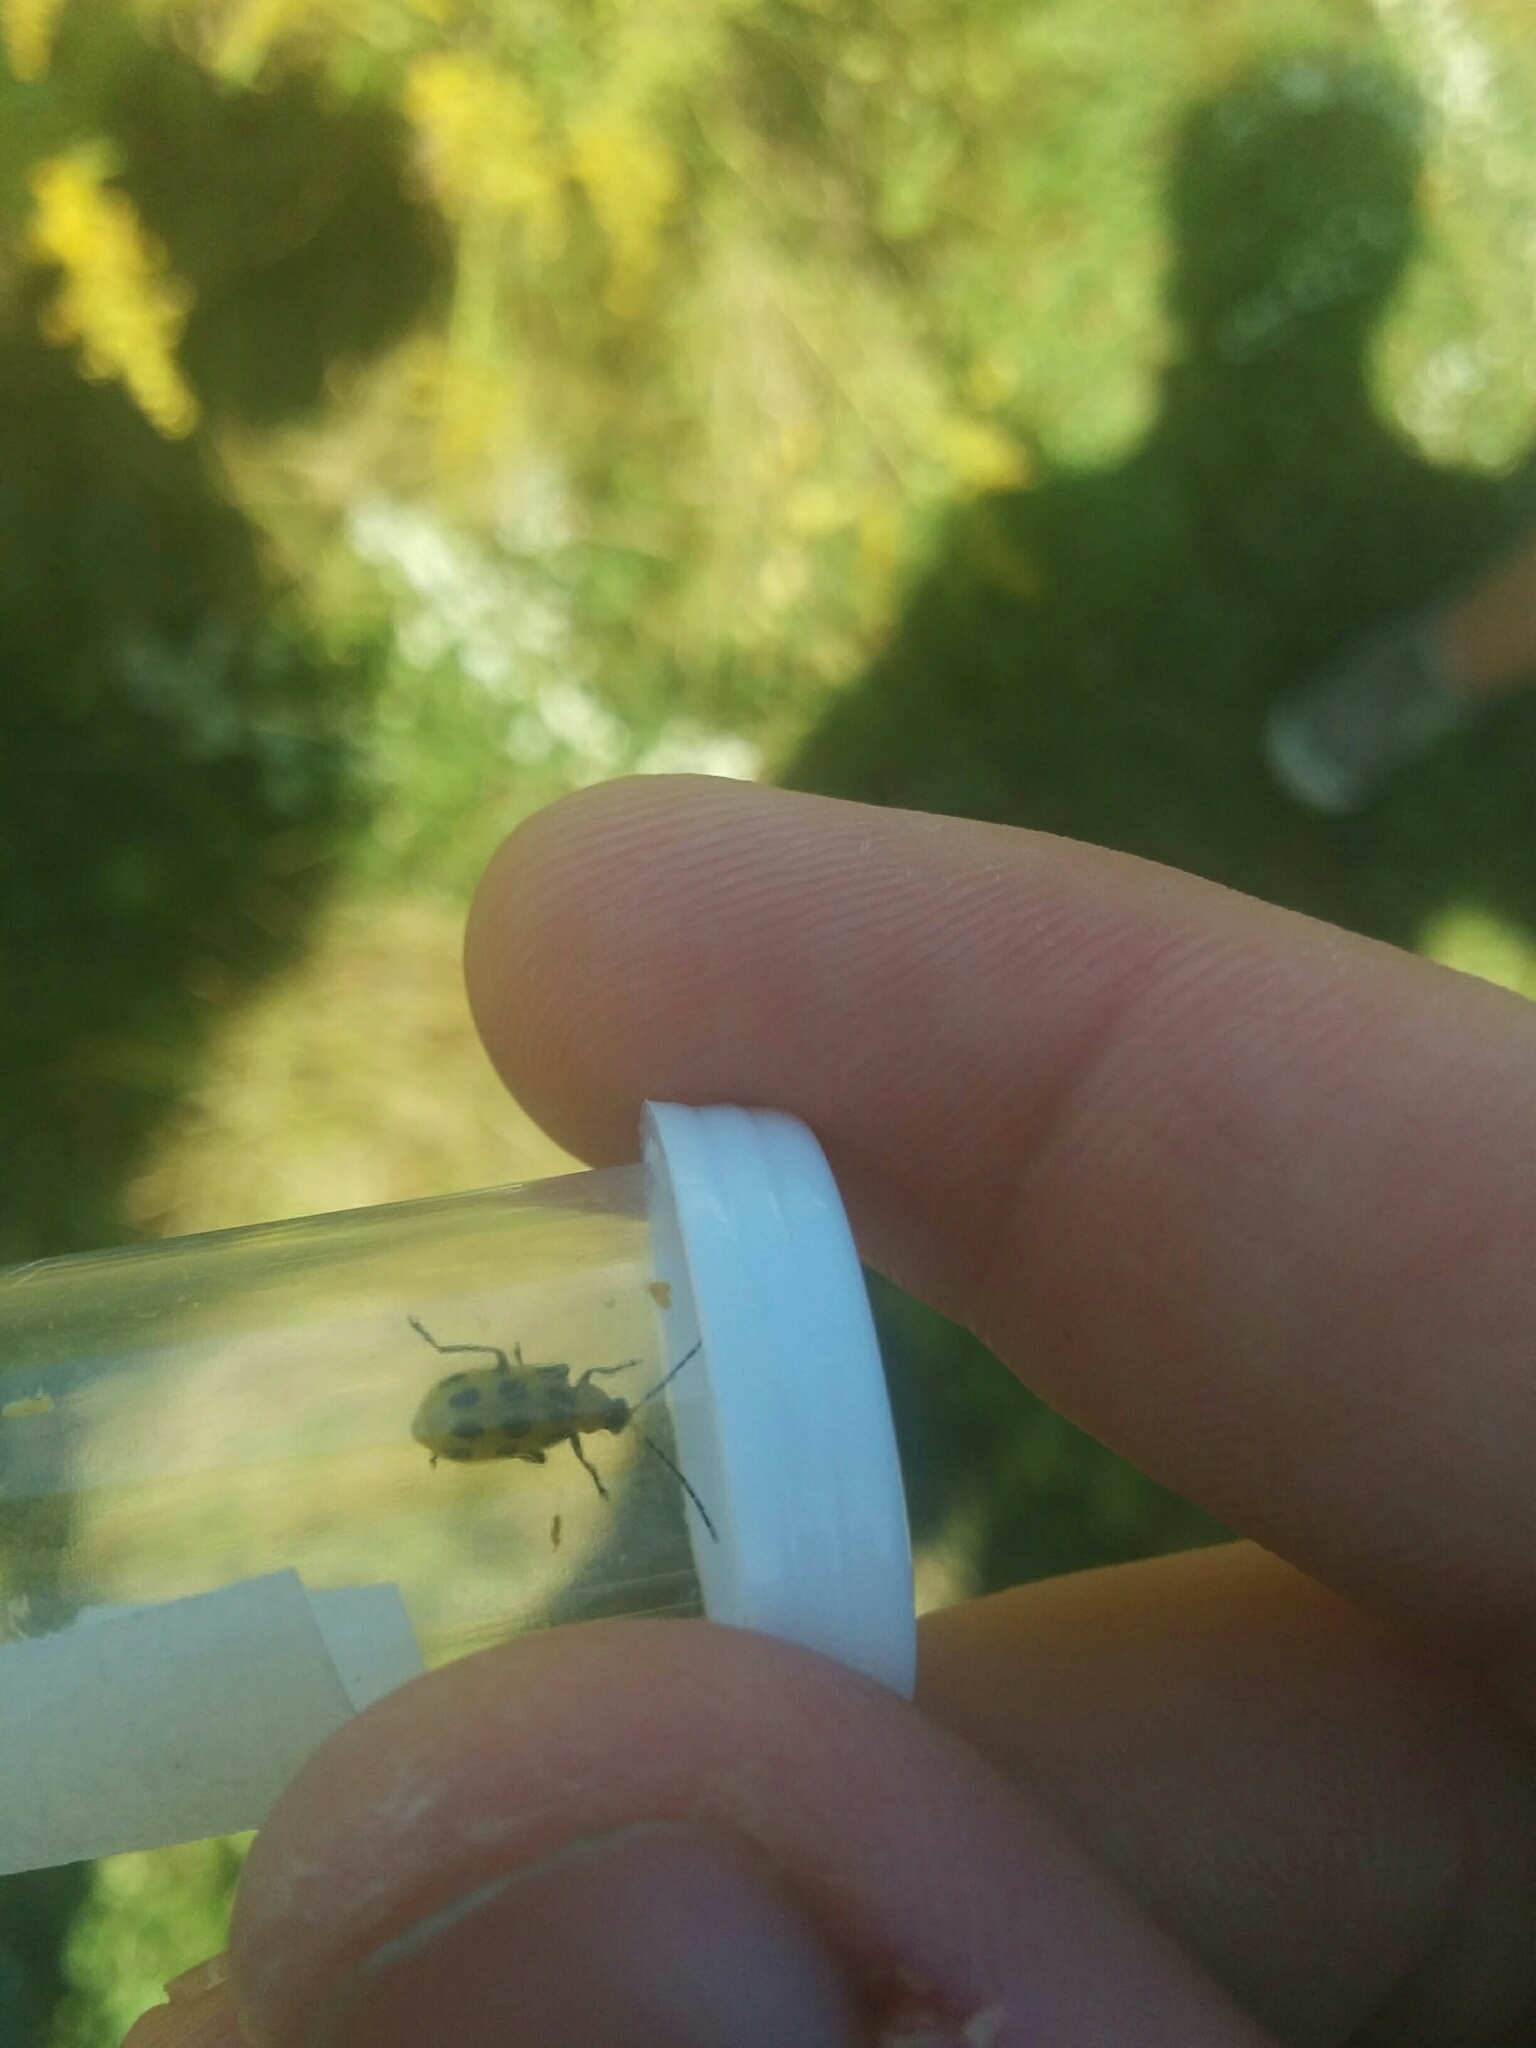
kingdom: Animalia
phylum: Arthropoda
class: Insecta
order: Coleoptera
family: Chrysomelidae
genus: Diabrotica
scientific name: Diabrotica undecimpunctata
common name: Spotted cucumber beetle
